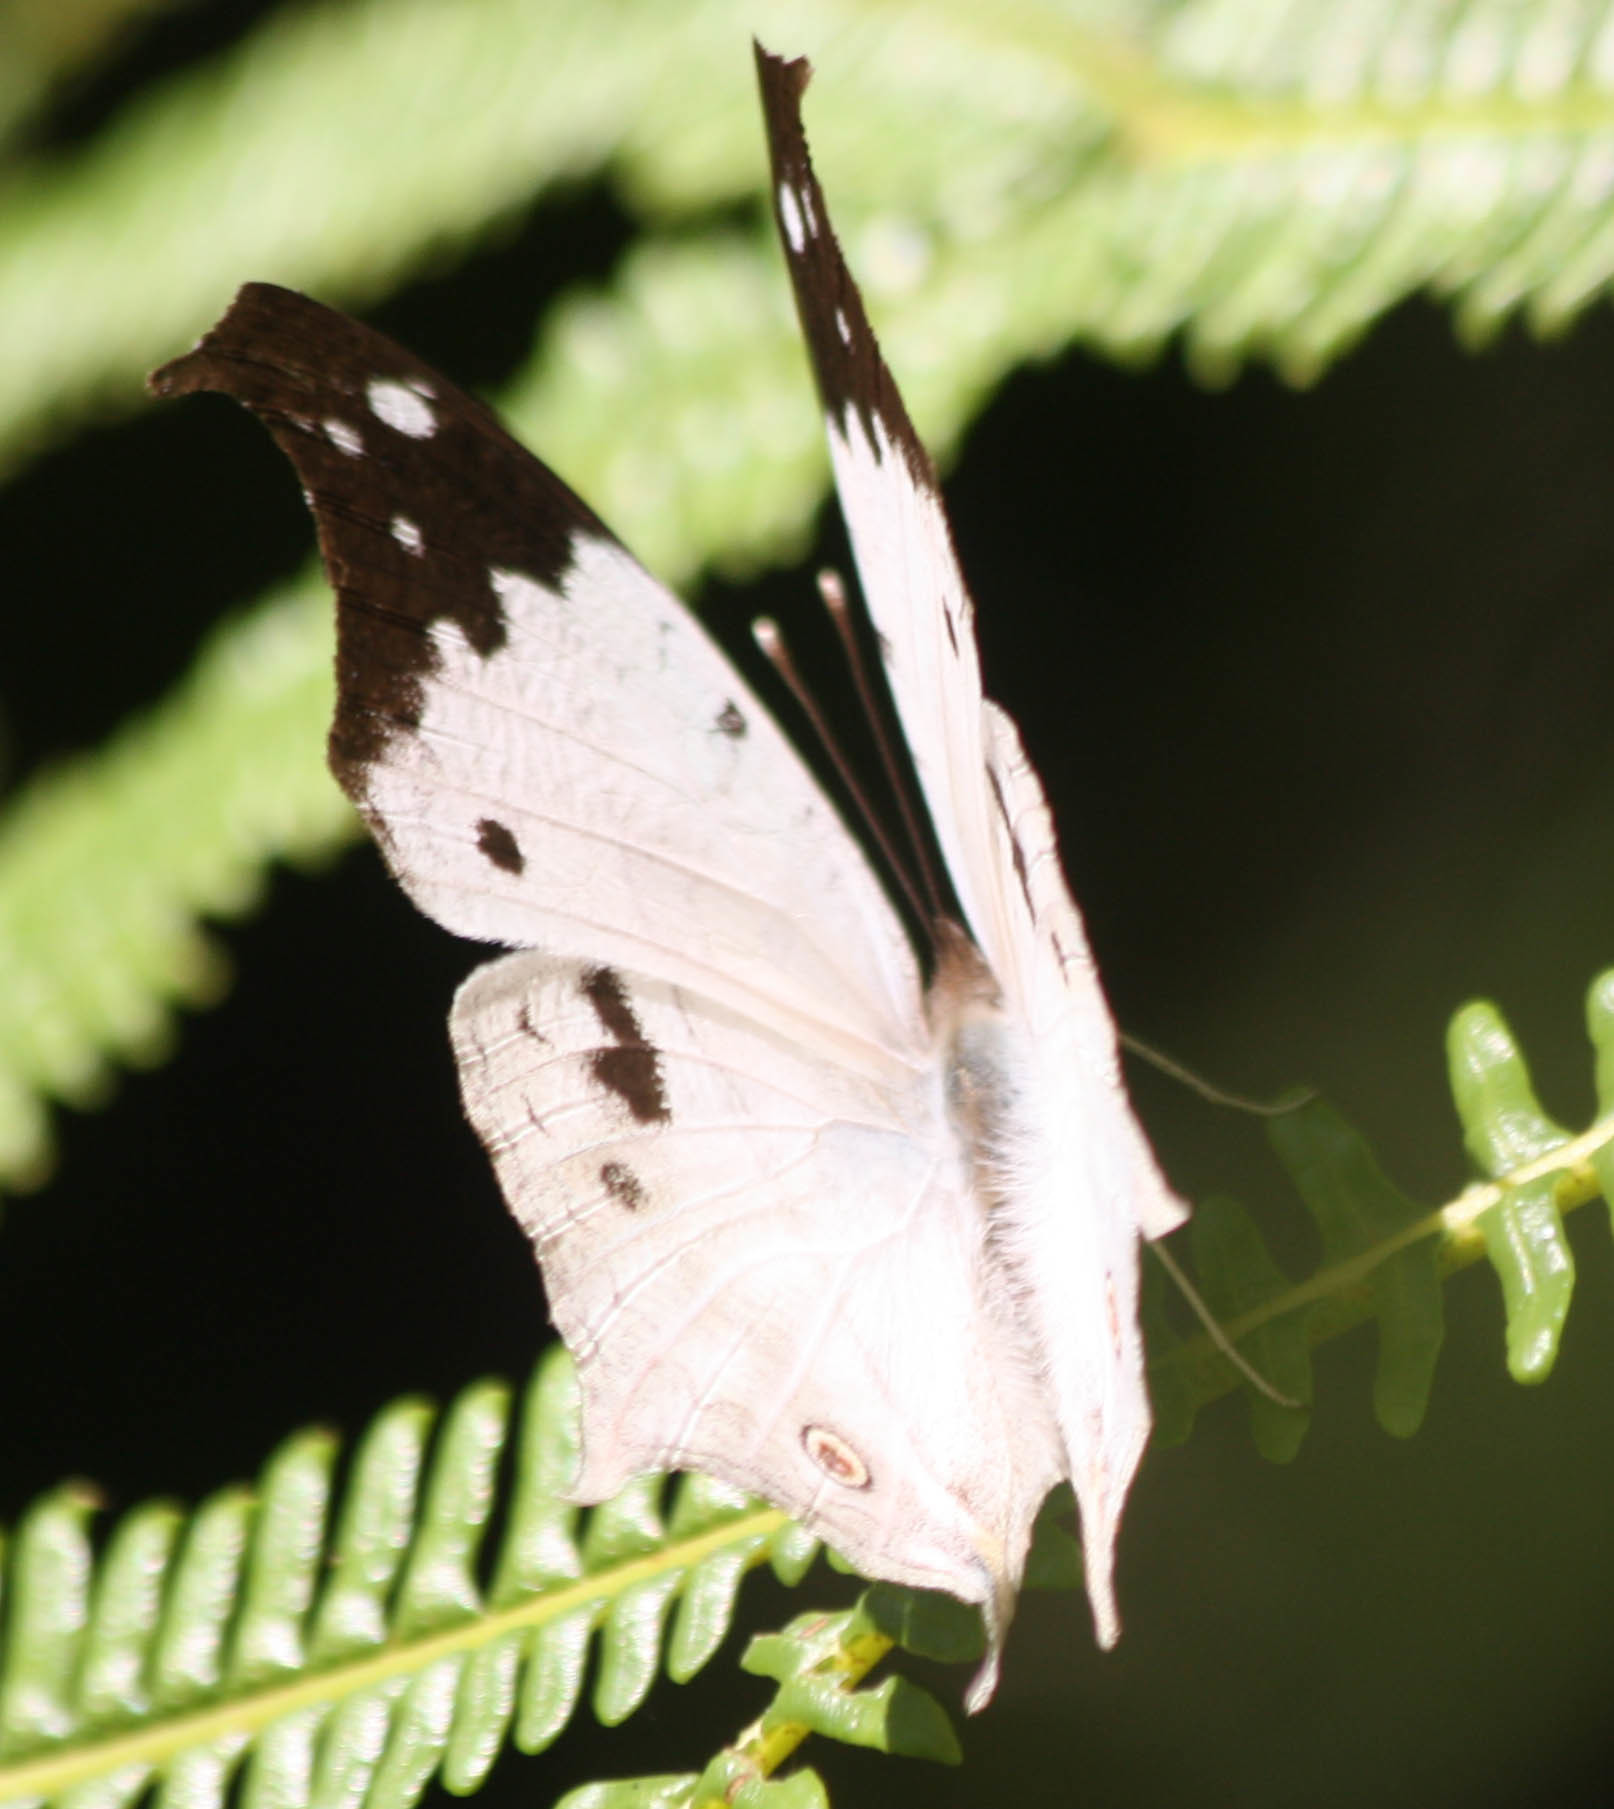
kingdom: Animalia
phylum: Arthropoda
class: Insecta
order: Lepidoptera
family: Nymphalidae
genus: Salamis
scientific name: Salamis Protogoniomorpha duprei
